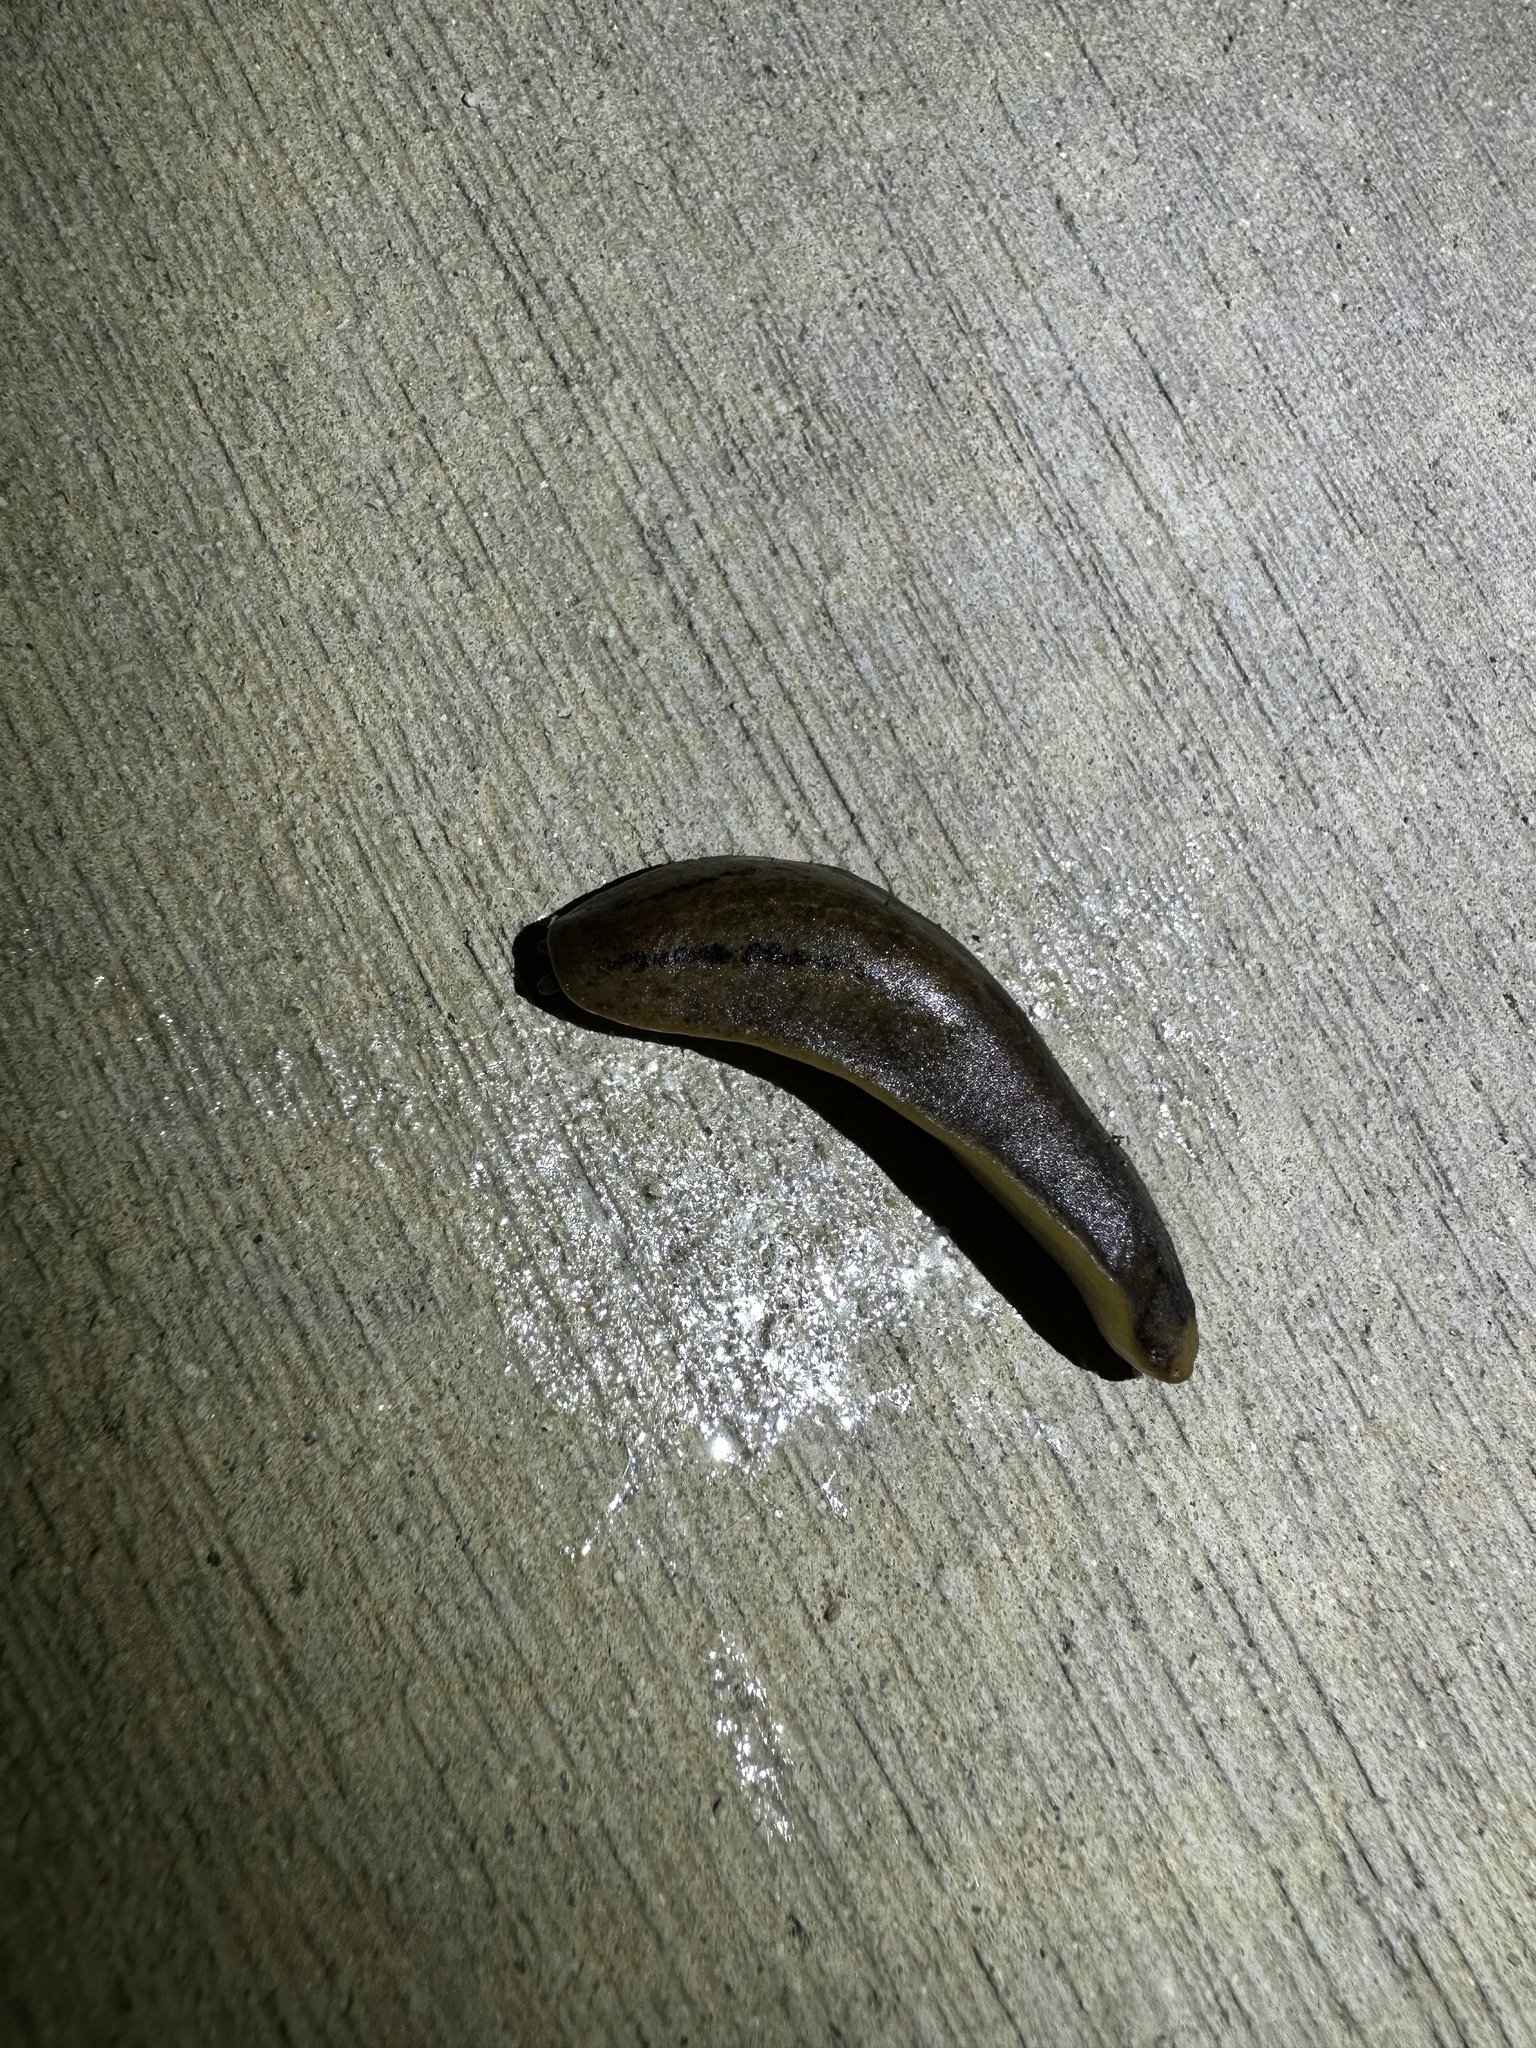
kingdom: Animalia
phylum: Mollusca
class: Gastropoda
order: Systellommatophora
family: Veronicellidae
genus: Leidyula
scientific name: Leidyula floridana
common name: Florida leatherleaf
